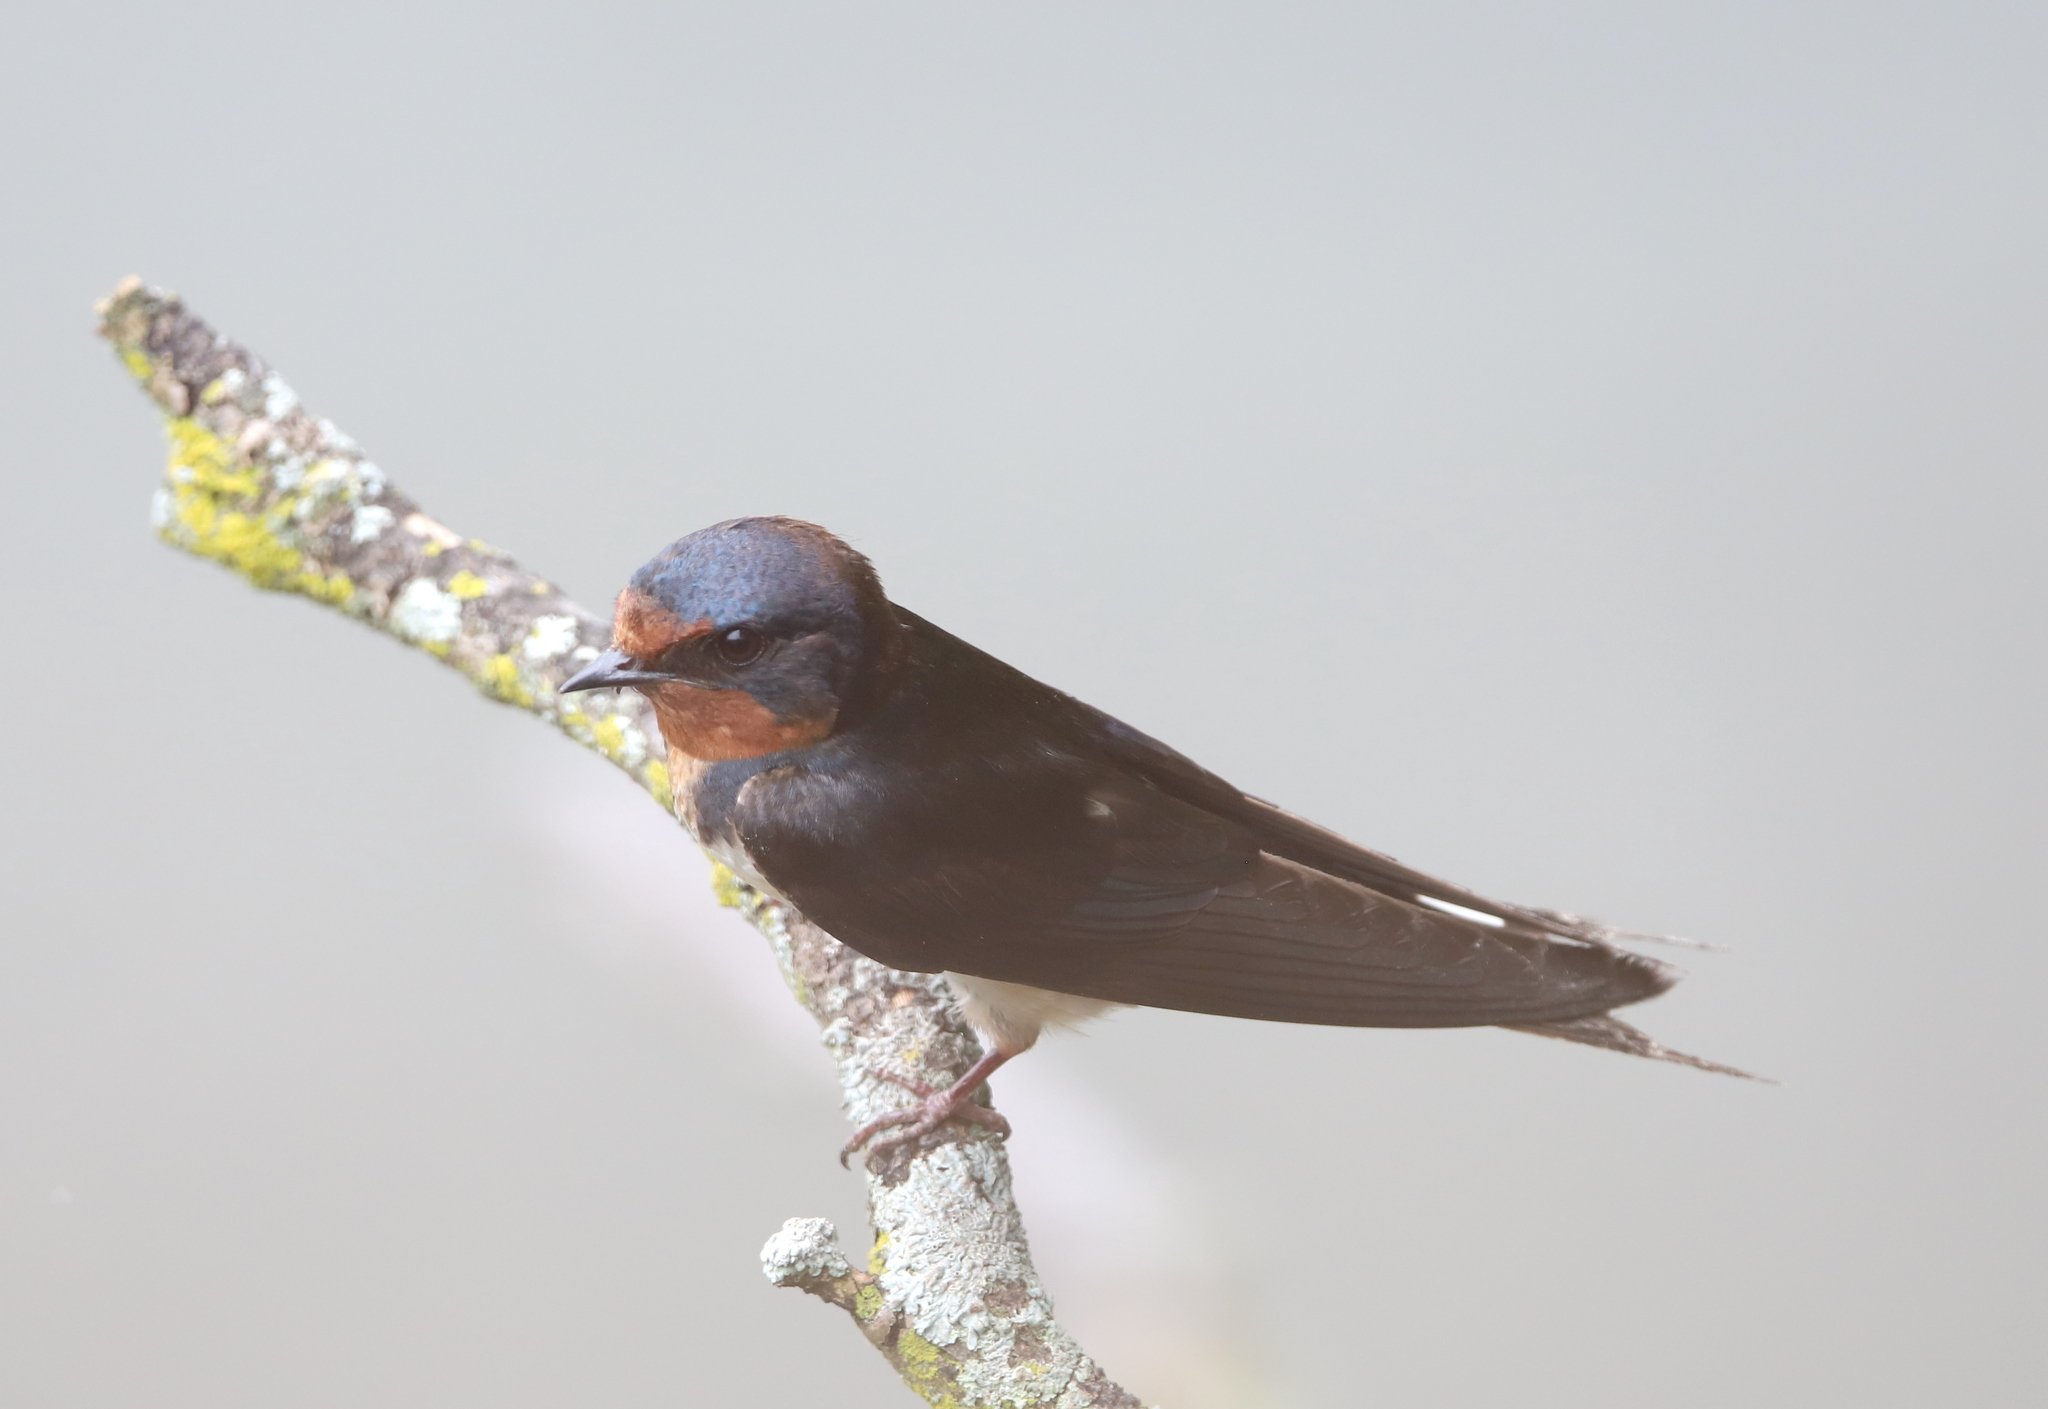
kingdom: Animalia
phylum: Chordata
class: Aves
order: Passeriformes
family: Hirundinidae
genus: Hirundo
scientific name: Hirundo rustica
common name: Barn swallow
